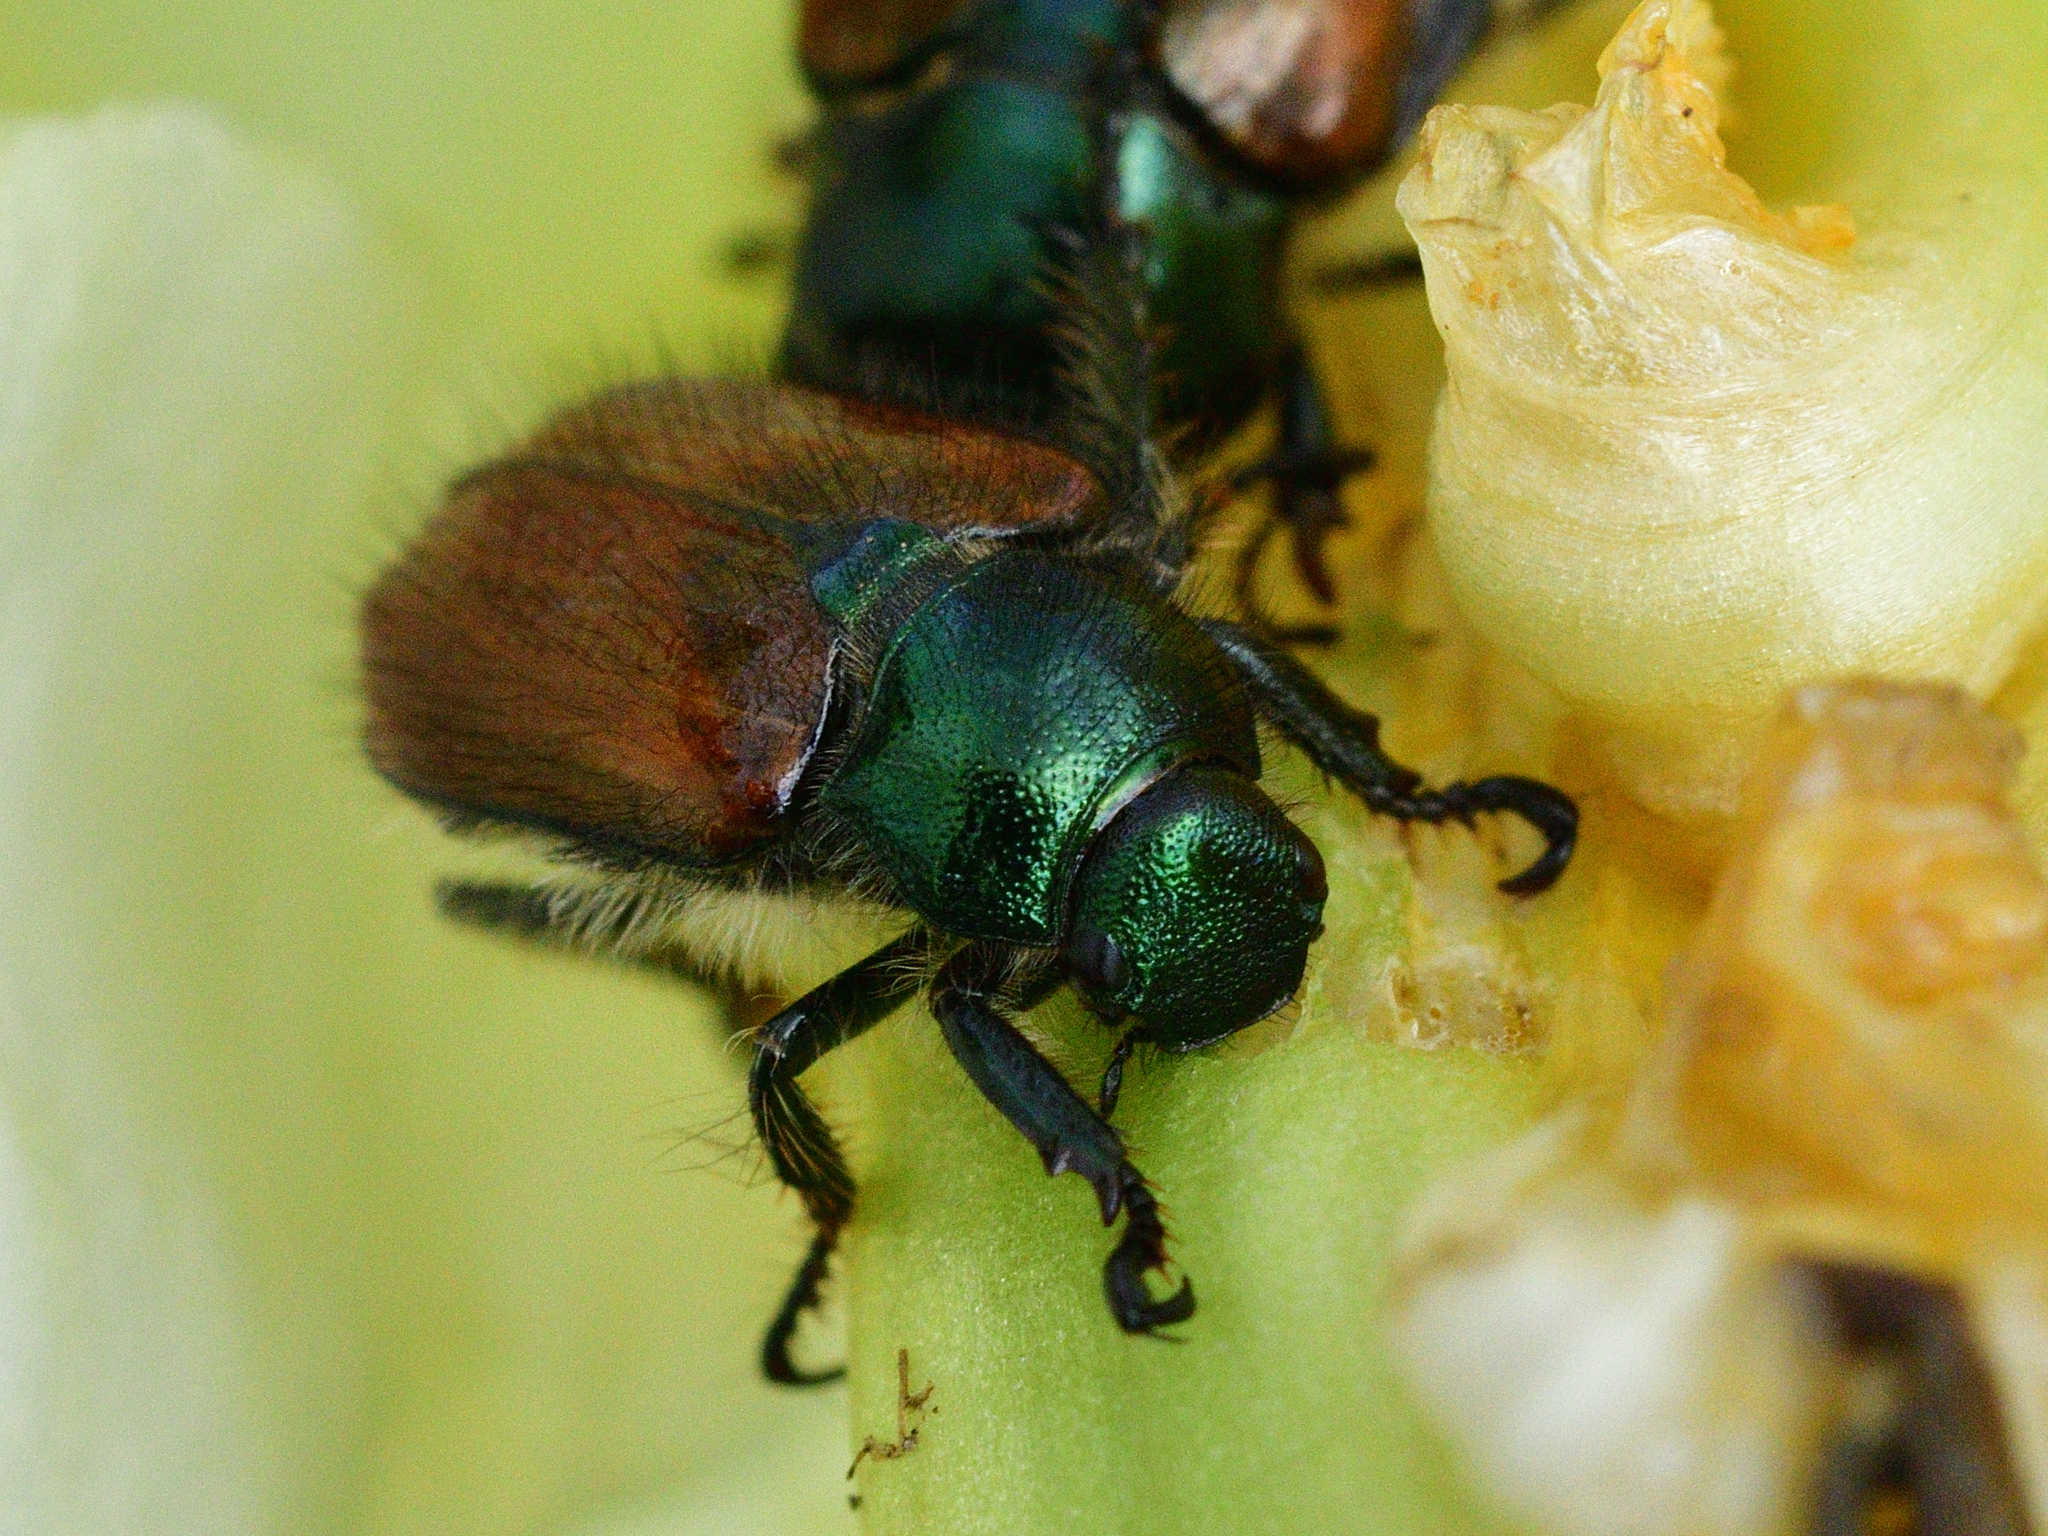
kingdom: Animalia
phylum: Arthropoda
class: Insecta
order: Coleoptera
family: Scarabaeidae
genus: Phyllopertha
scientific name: Phyllopertha horticola
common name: Garden chafer
